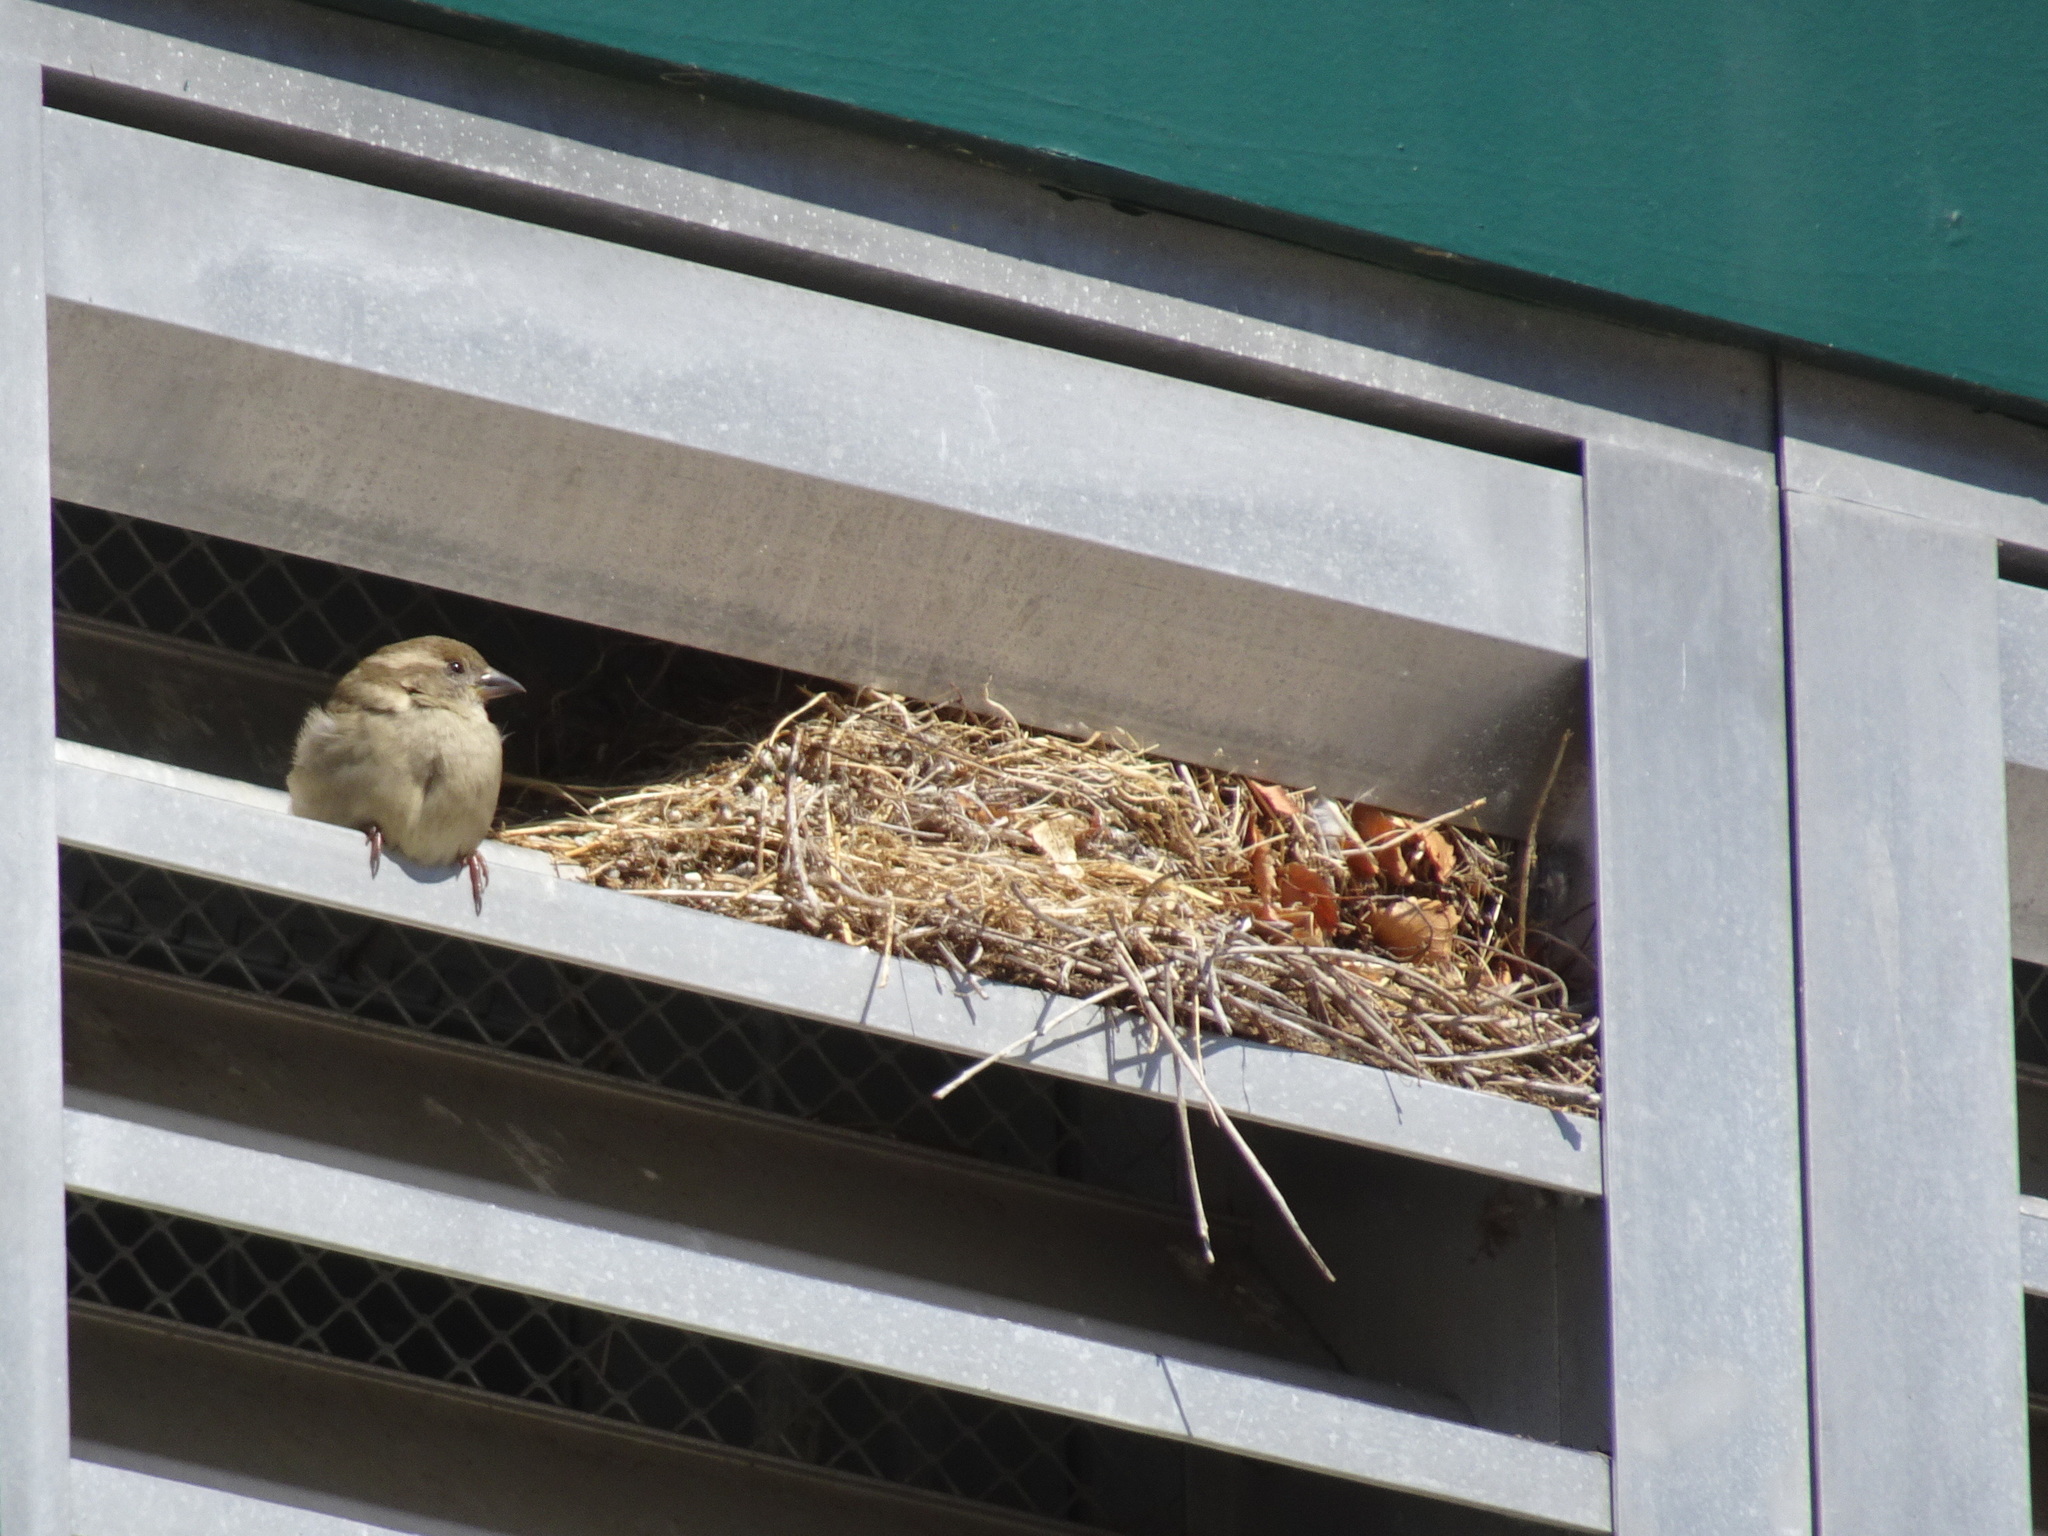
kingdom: Animalia
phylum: Chordata
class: Aves
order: Passeriformes
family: Passeridae
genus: Passer
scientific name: Passer domesticus
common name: House sparrow
